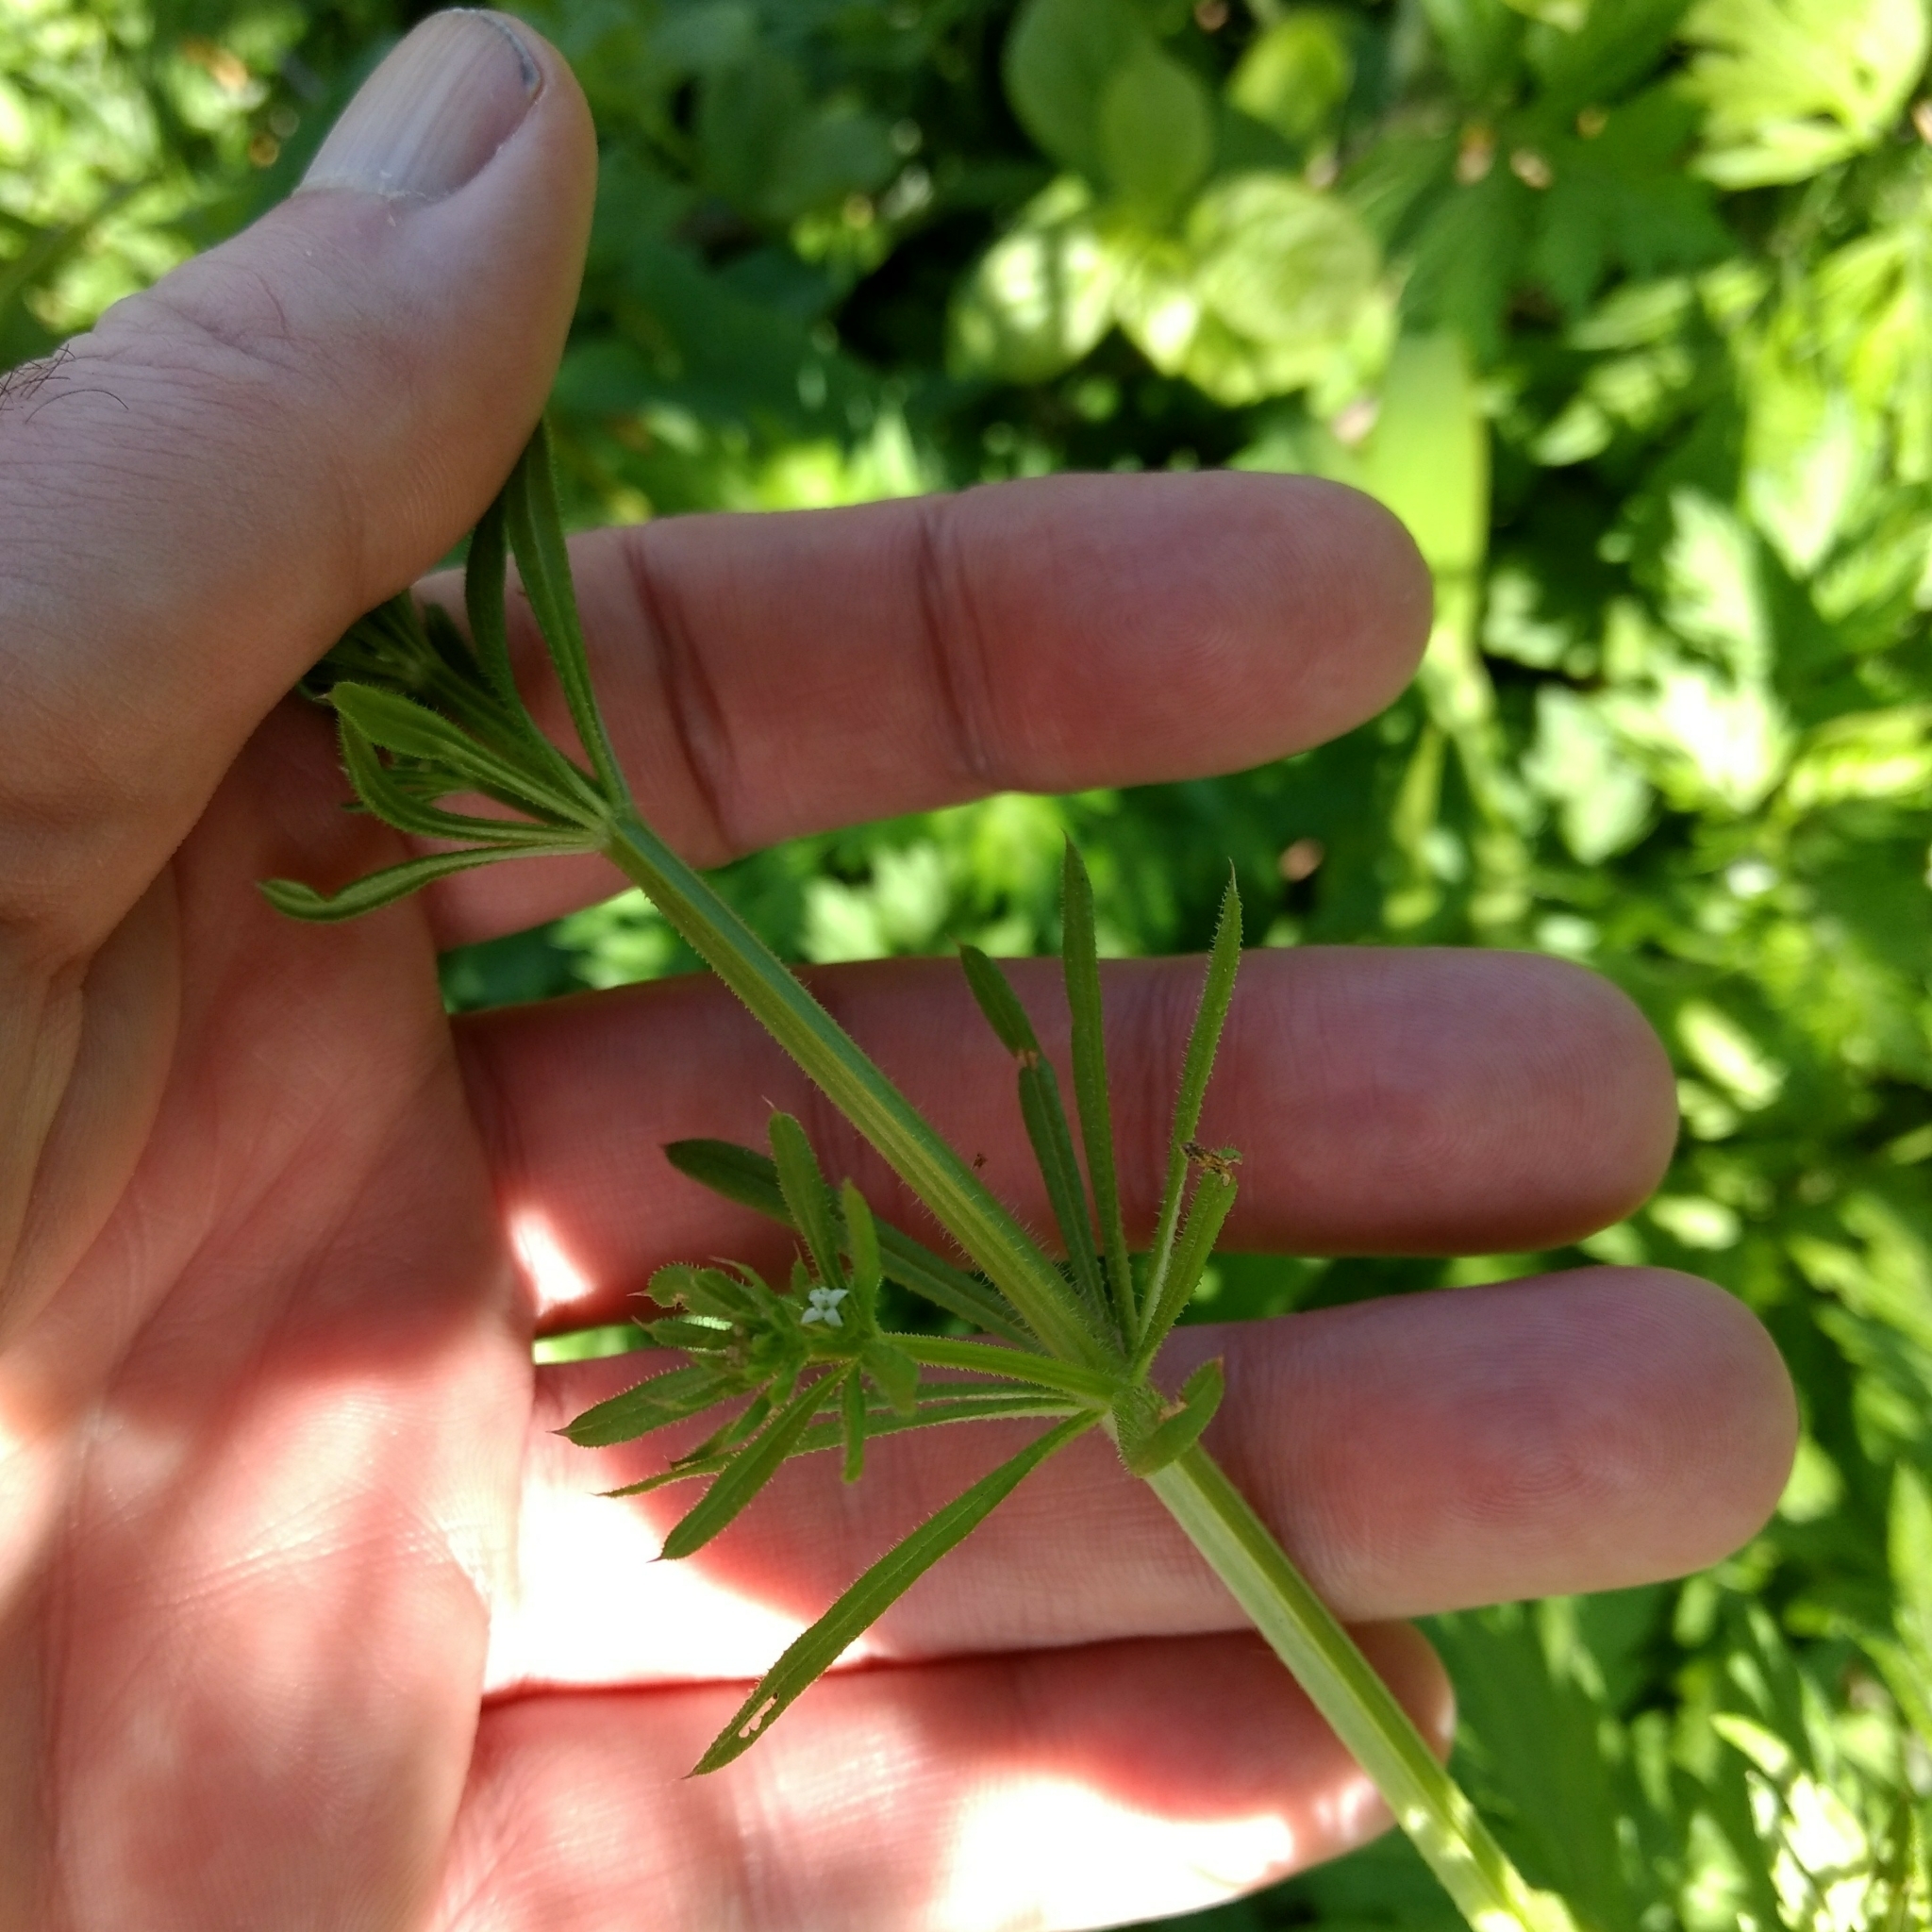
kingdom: Plantae
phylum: Tracheophyta
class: Magnoliopsida
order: Gentianales
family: Rubiaceae
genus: Galium
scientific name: Galium aparine
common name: Cleavers
